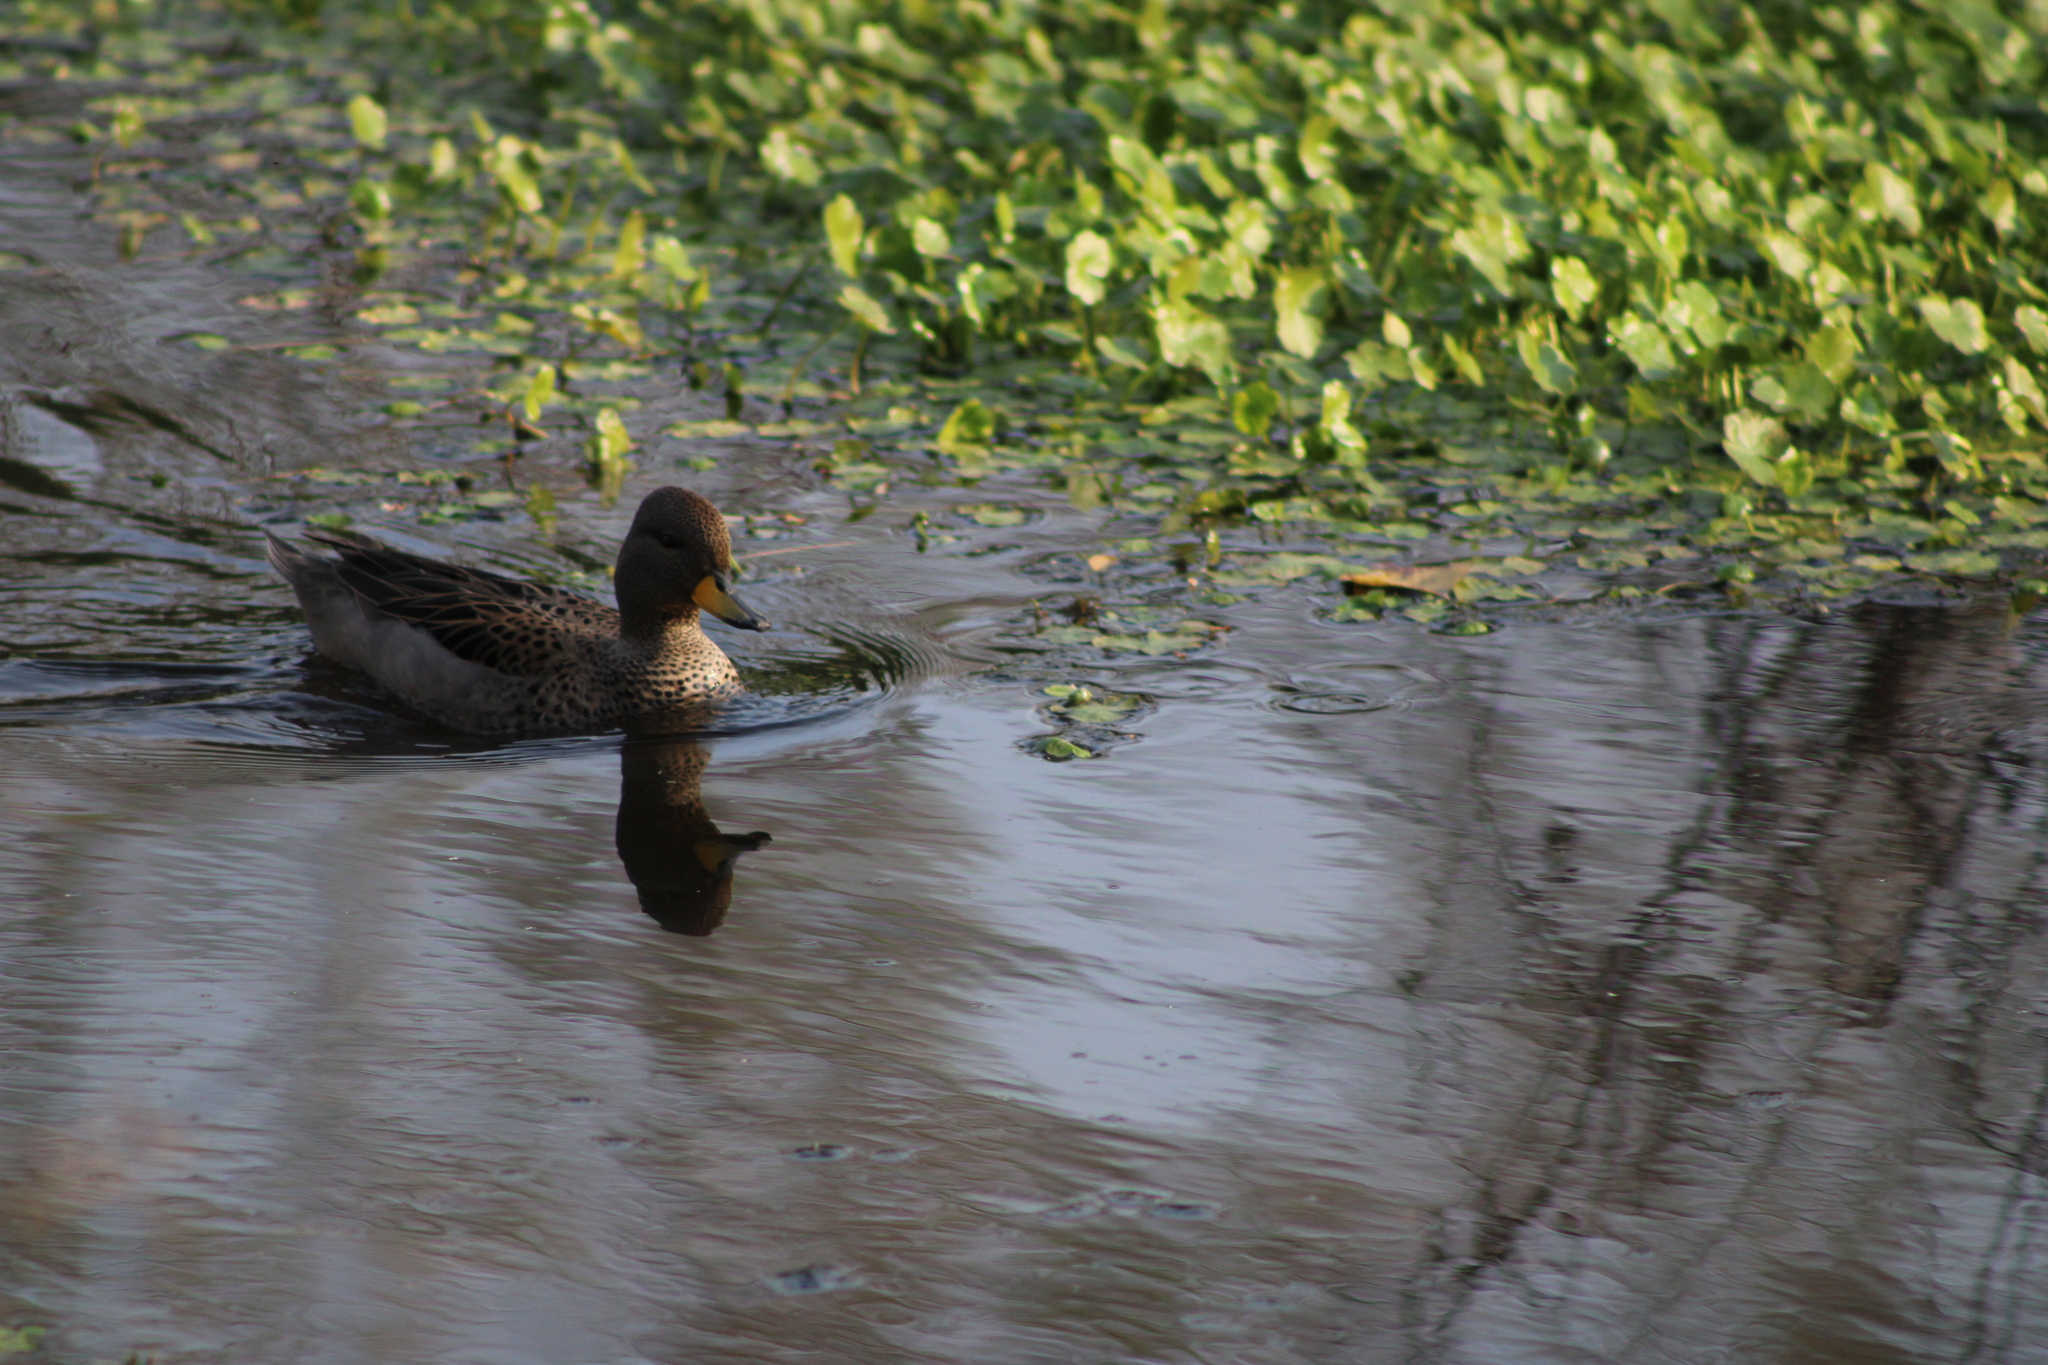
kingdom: Animalia
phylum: Chordata
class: Aves
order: Anseriformes
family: Anatidae
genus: Anas
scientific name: Anas flavirostris
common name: Yellow-billed teal
